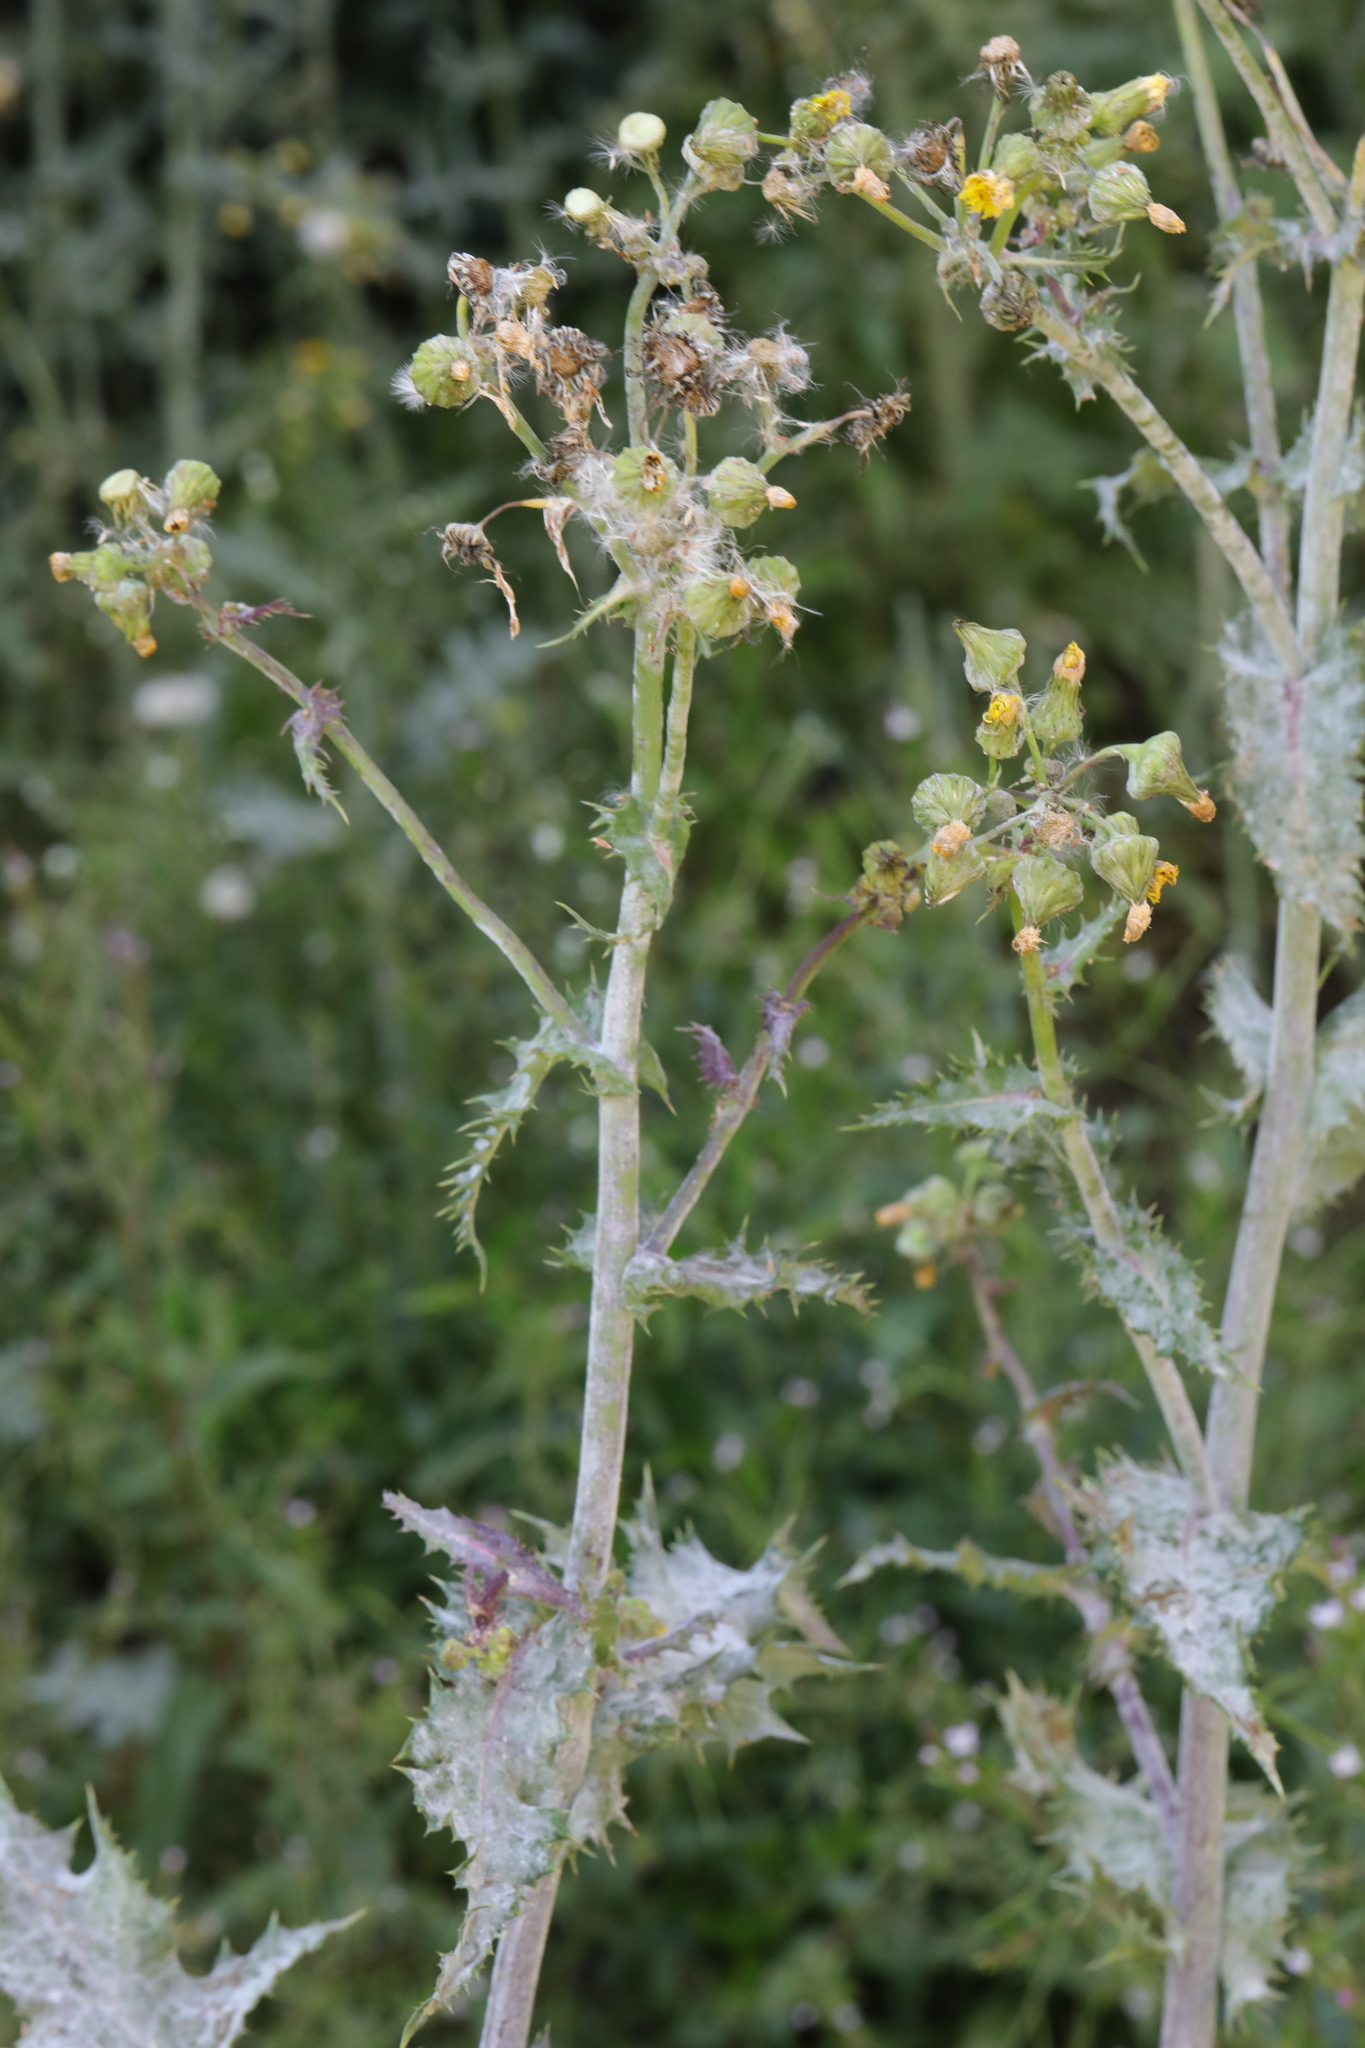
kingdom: Plantae
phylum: Tracheophyta
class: Magnoliopsida
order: Asterales
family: Asteraceae
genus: Sonchus
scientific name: Sonchus asper
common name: Prickly sow-thistle
